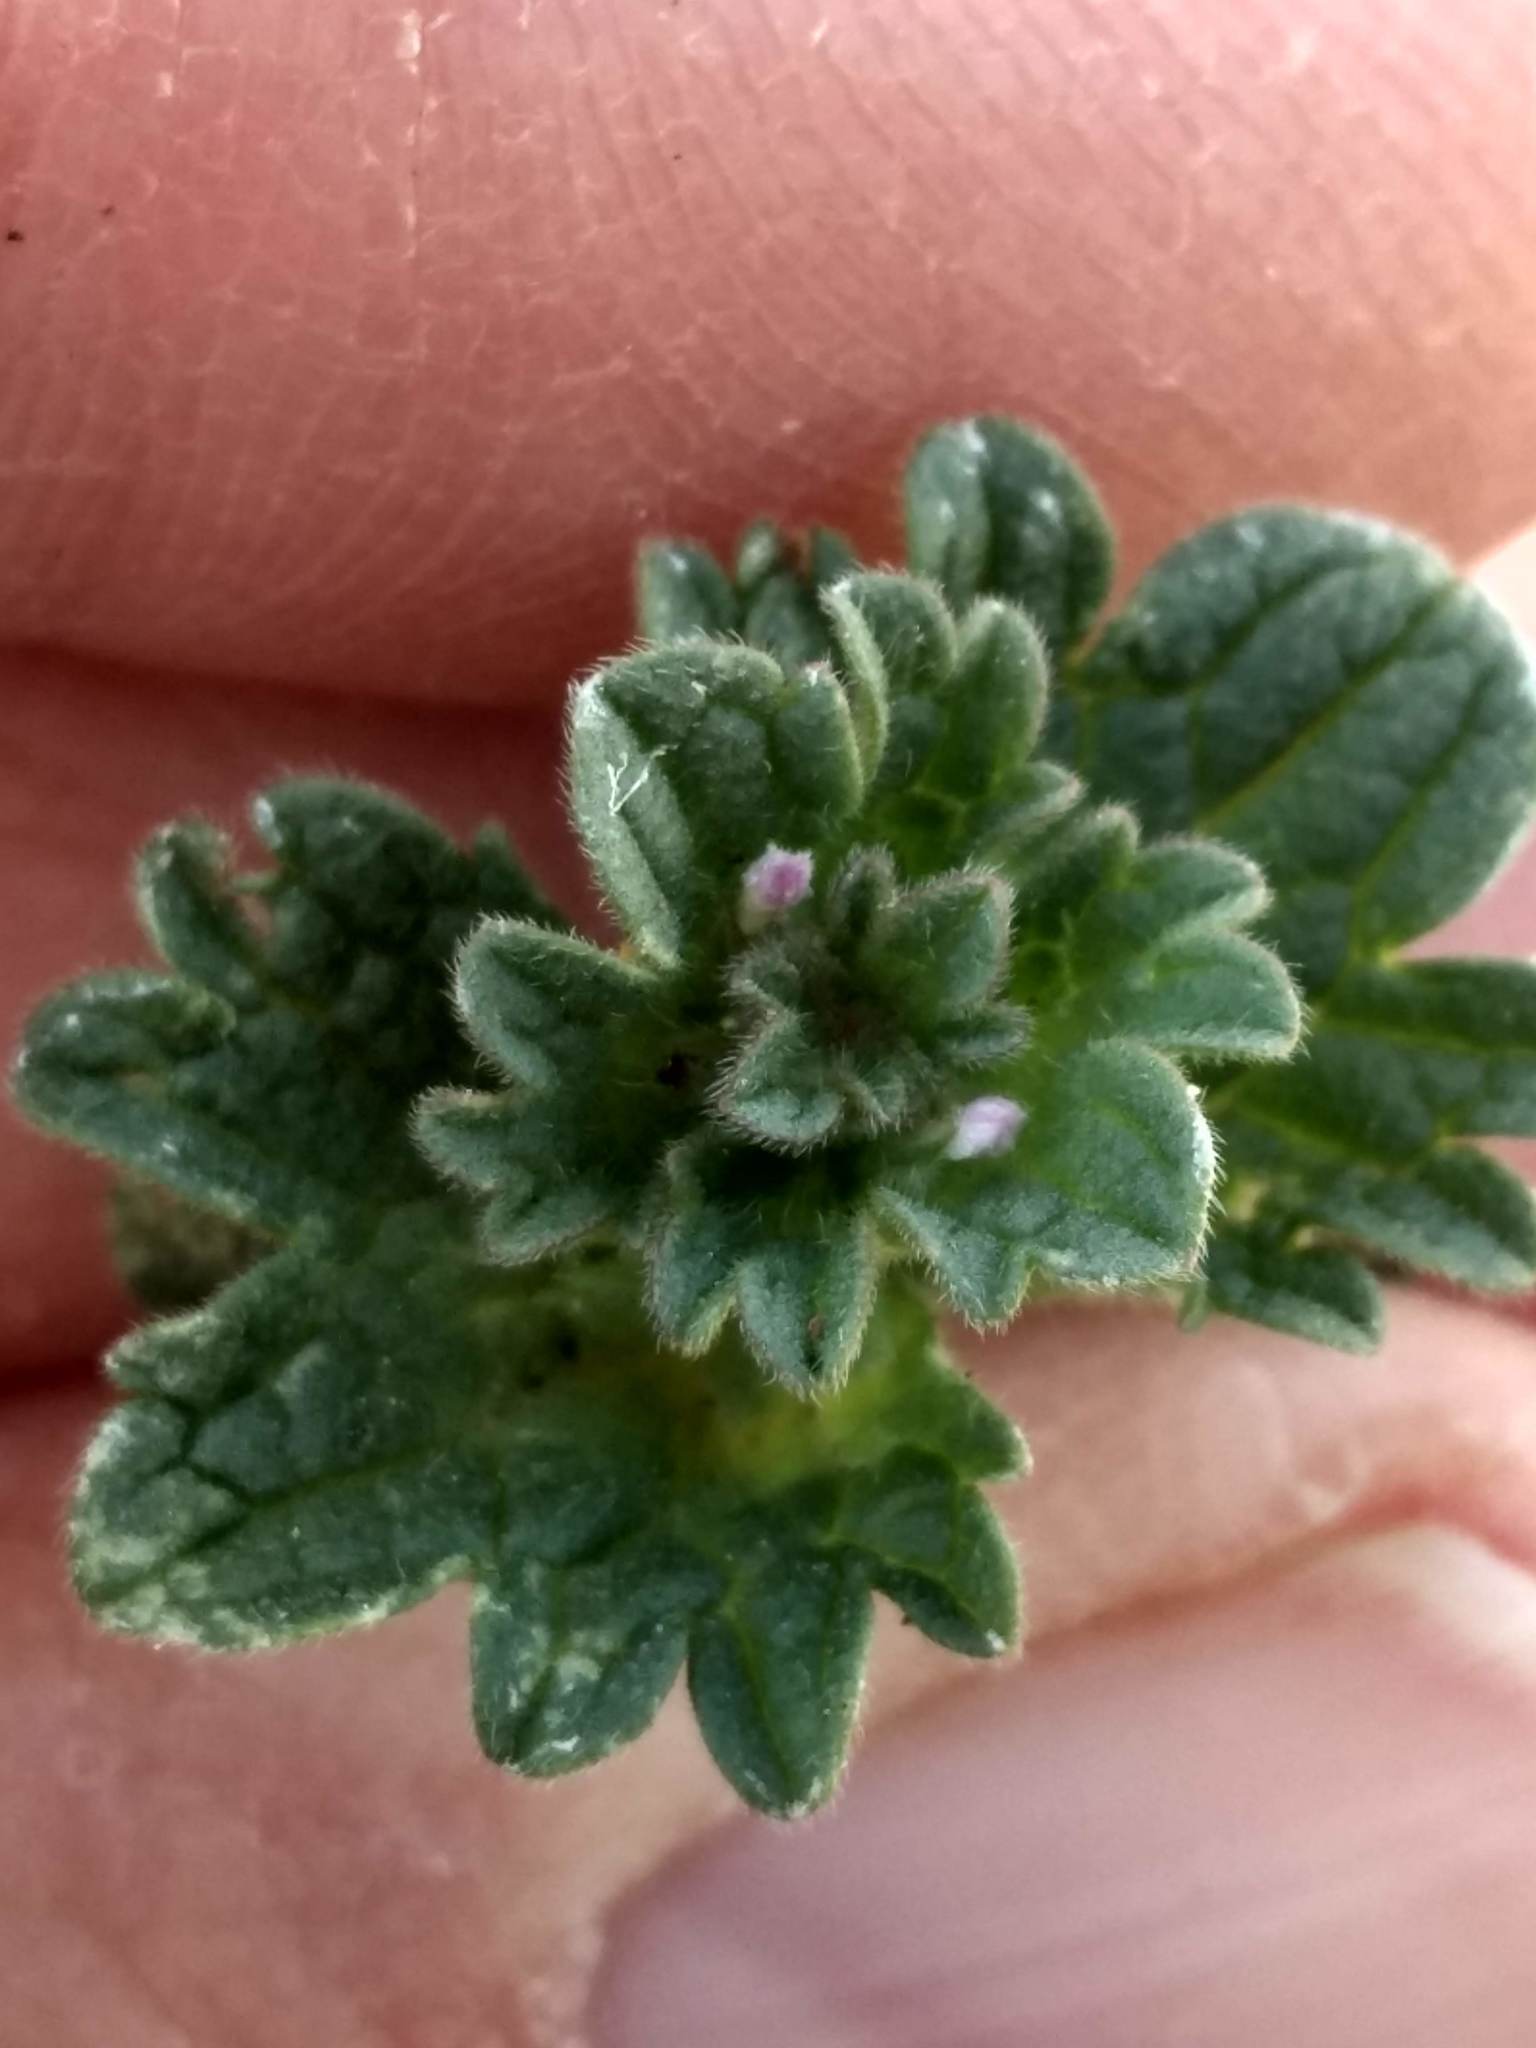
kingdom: Plantae
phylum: Tracheophyta
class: Magnoliopsida
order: Lamiales
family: Lamiaceae
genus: Lamium
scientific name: Lamium amplexicaule
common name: Henbit dead-nettle
